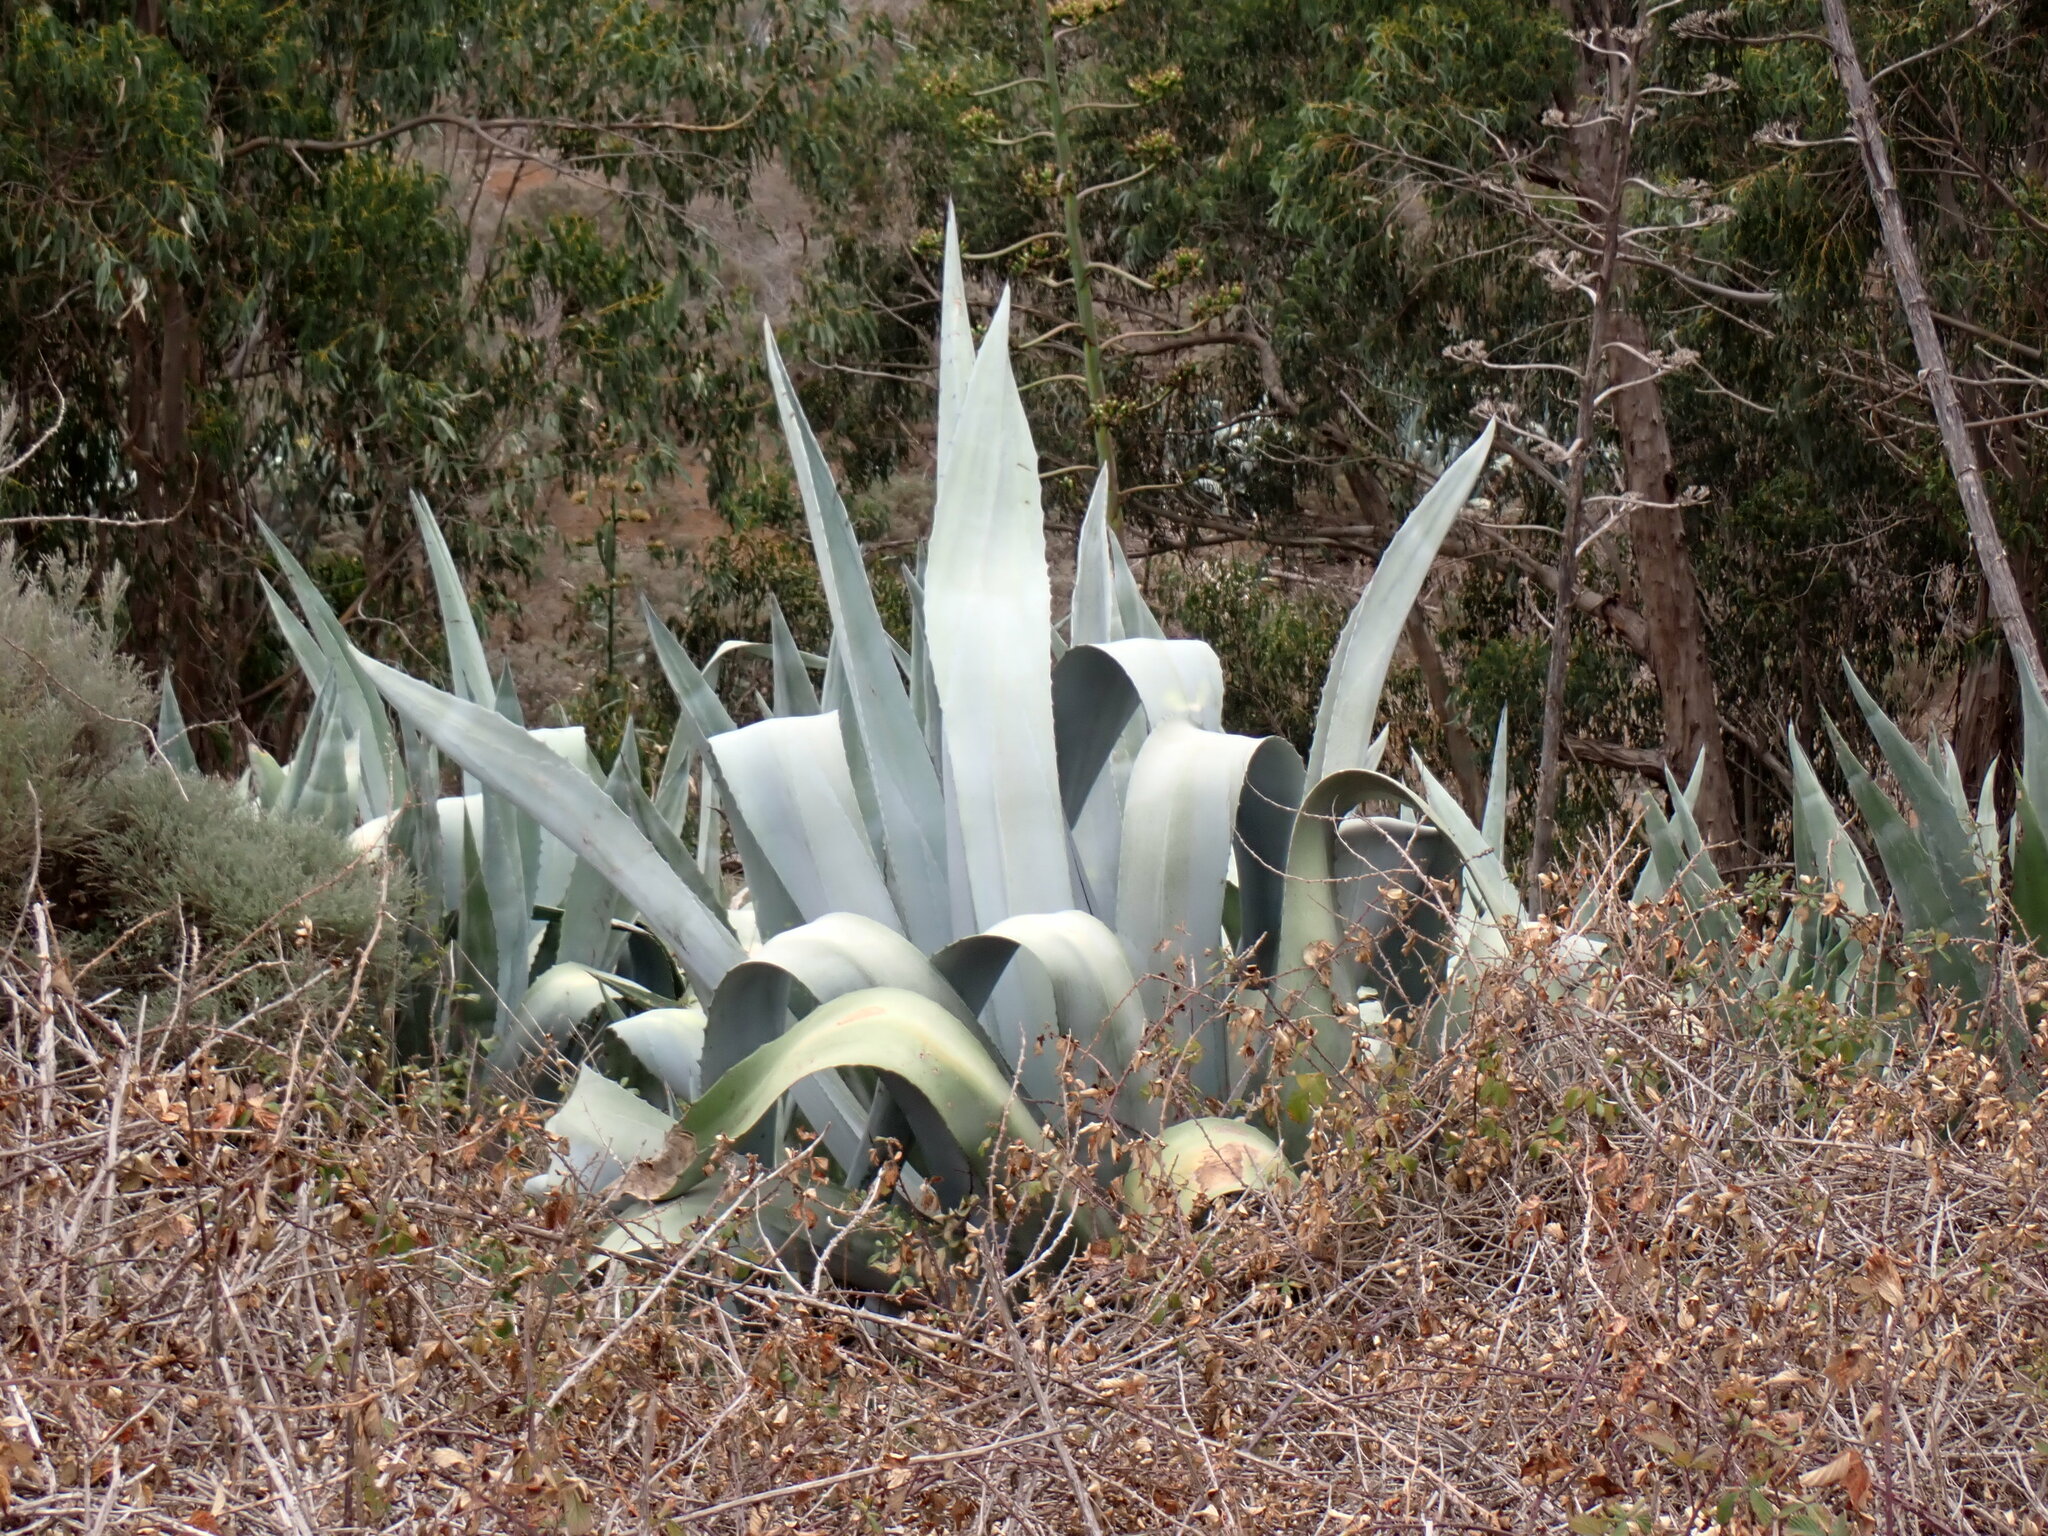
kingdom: Plantae
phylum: Tracheophyta
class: Liliopsida
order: Asparagales
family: Asparagaceae
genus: Agave
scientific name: Agave americana
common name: Centuryplant
